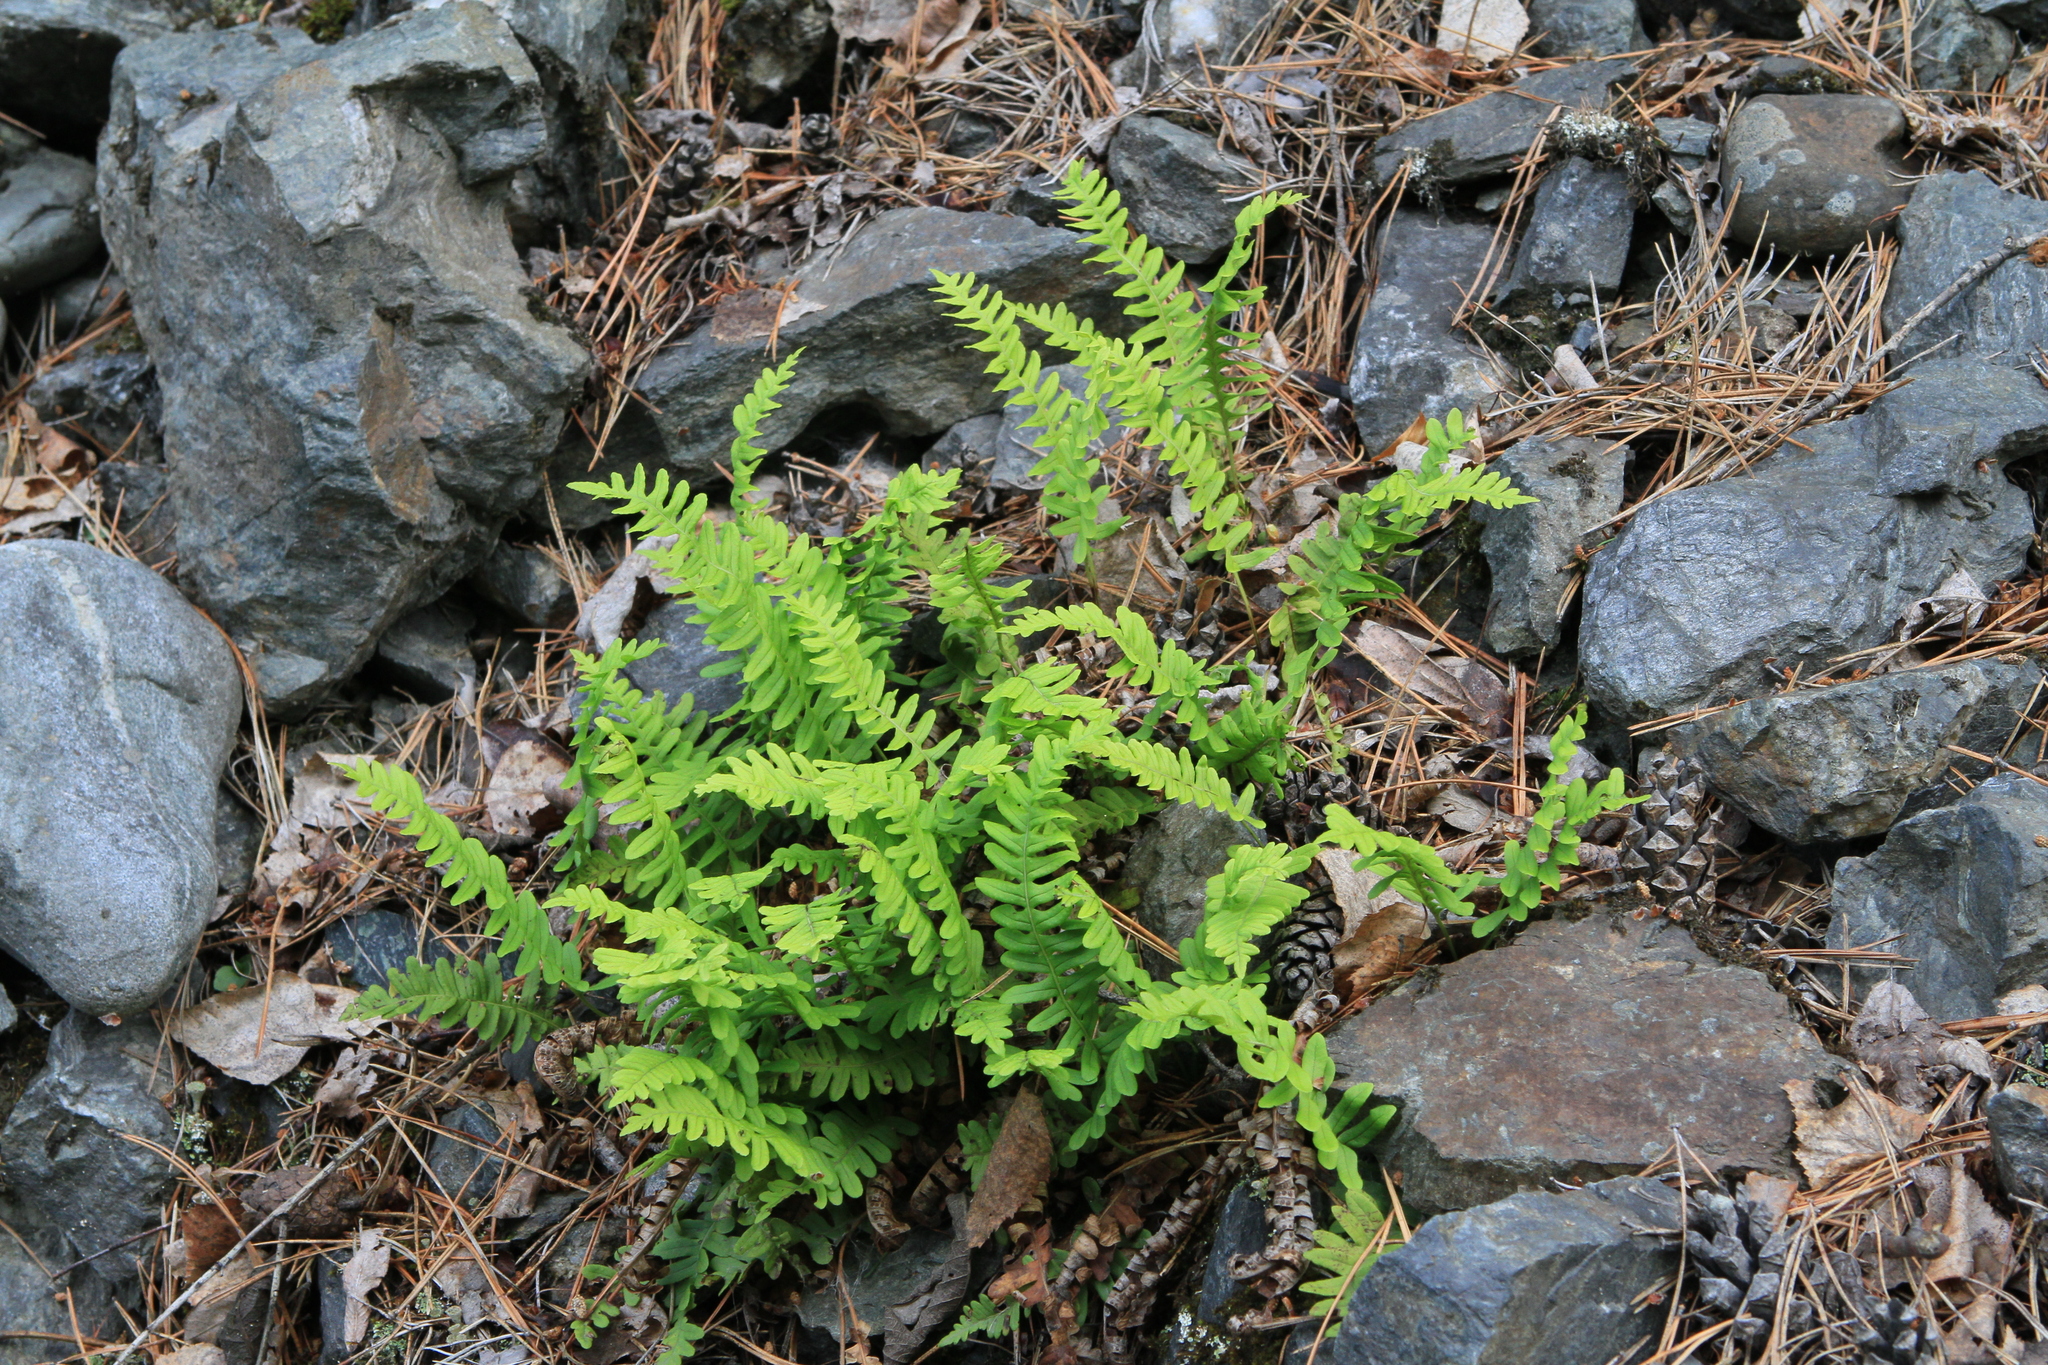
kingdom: Plantae
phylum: Tracheophyta
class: Polypodiopsida
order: Polypodiales
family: Polypodiaceae
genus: Polypodium
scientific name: Polypodium sibiricum
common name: Siberian polypody
